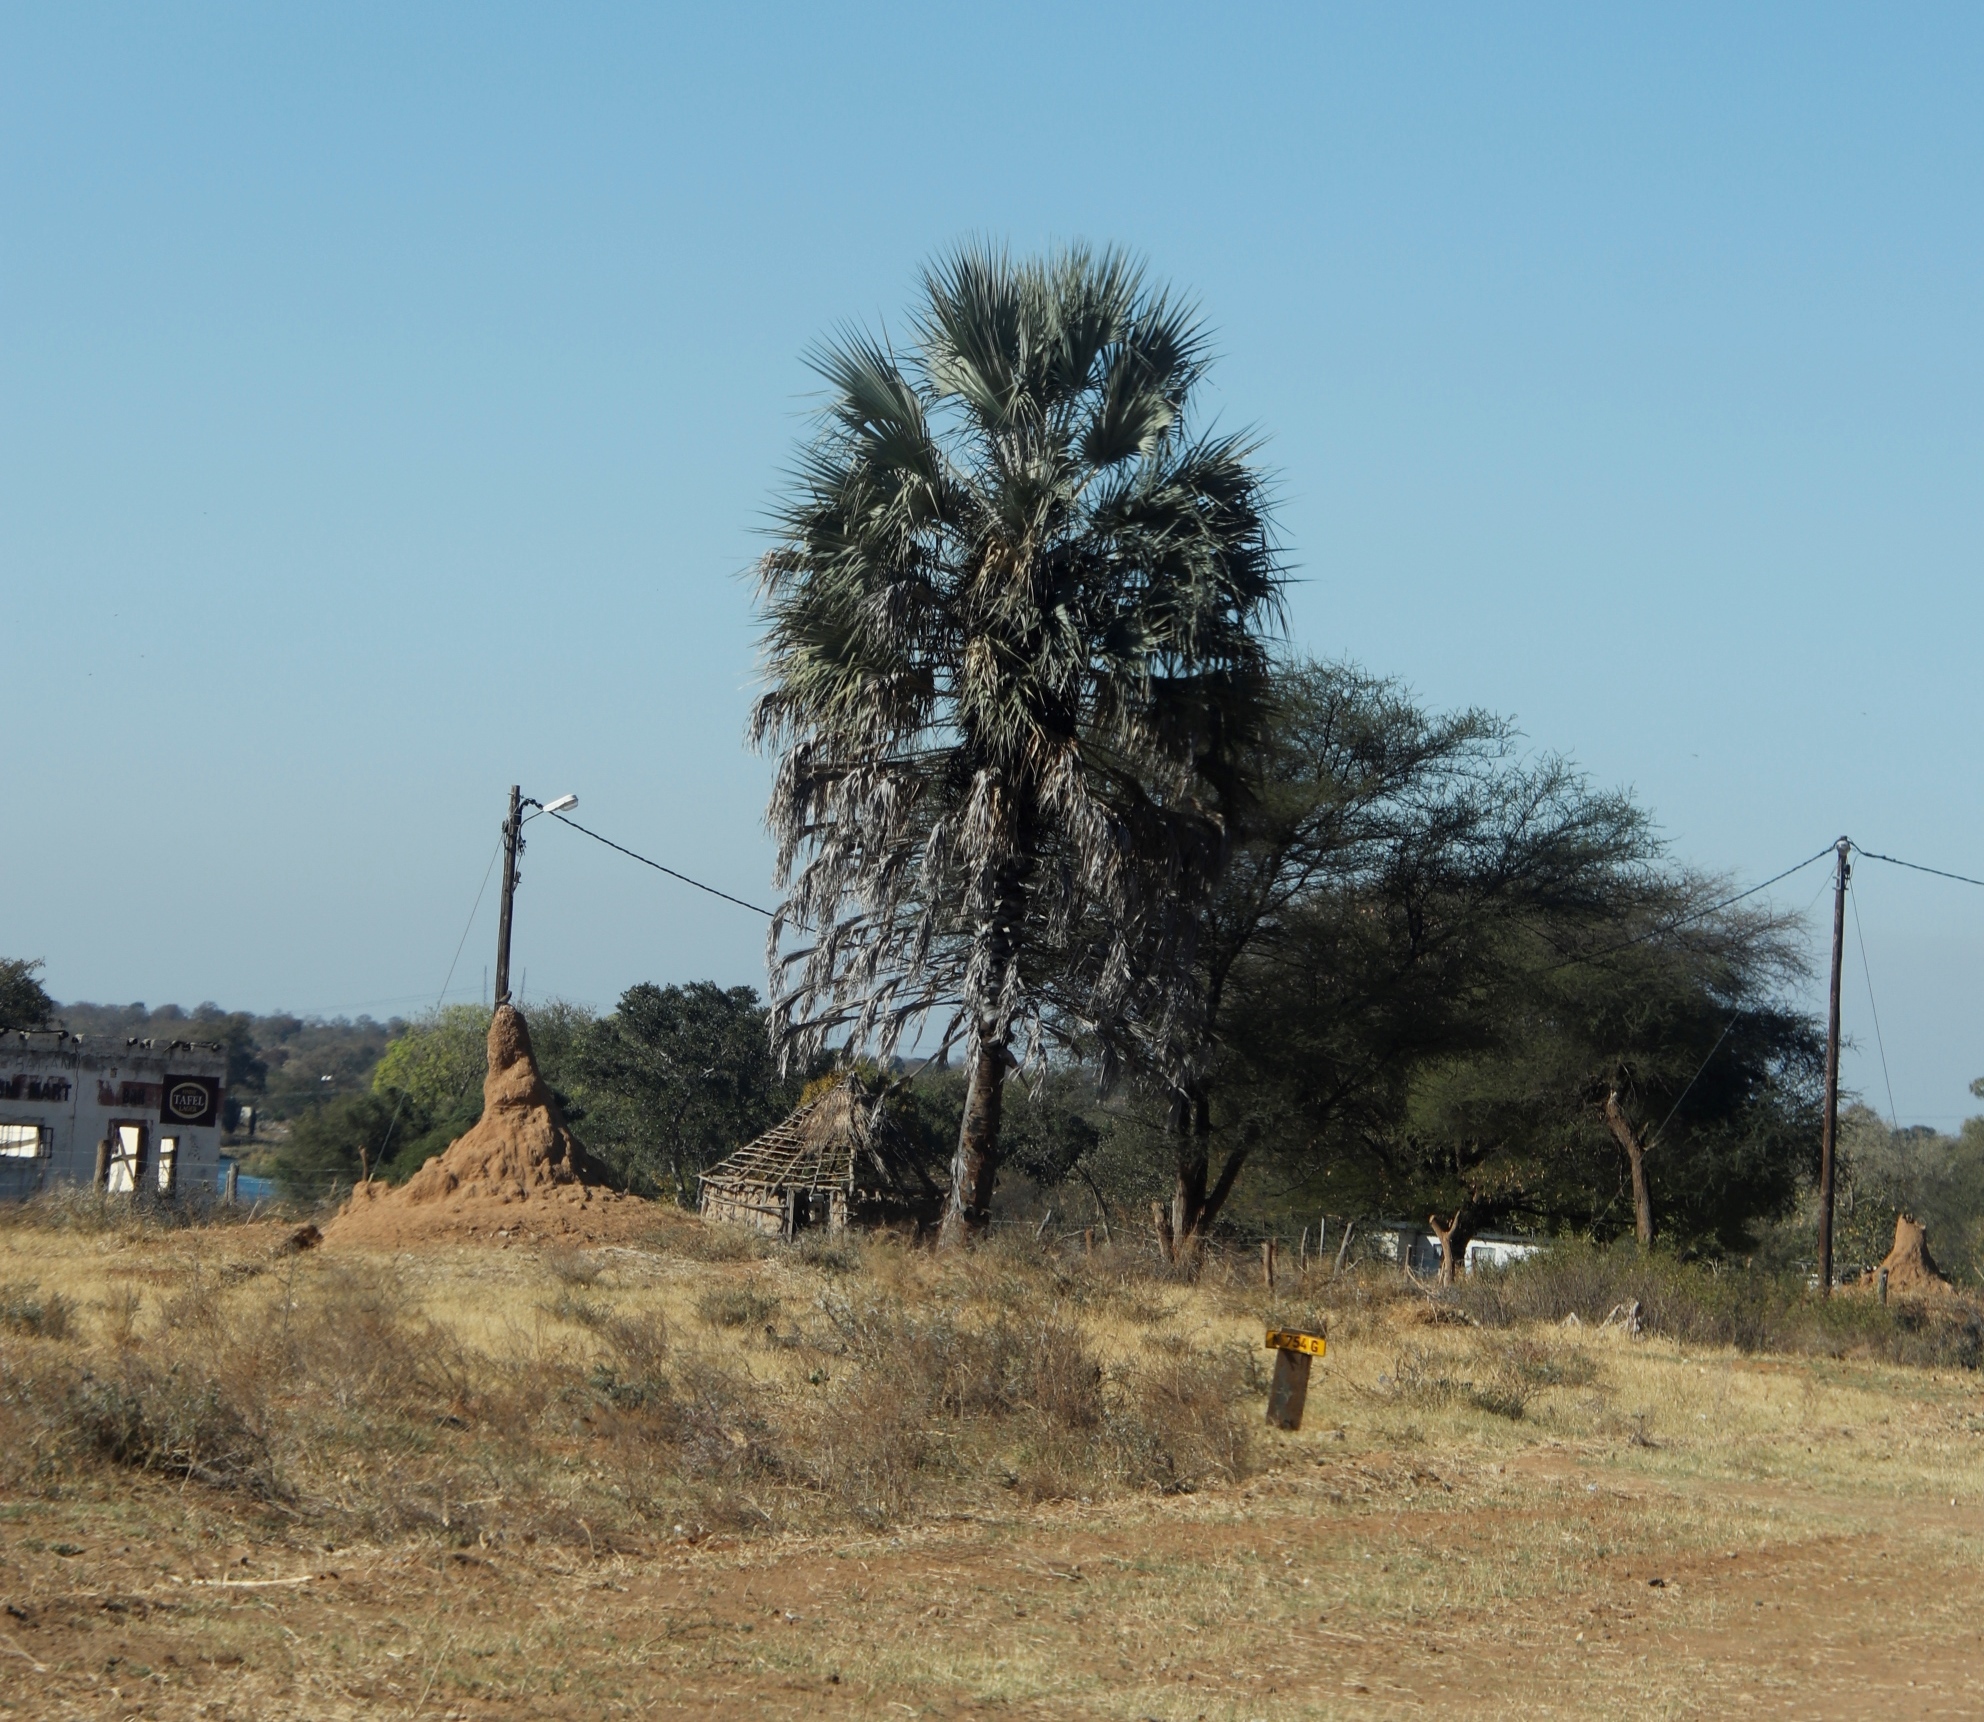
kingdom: Plantae
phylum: Tracheophyta
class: Liliopsida
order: Arecales
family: Arecaceae
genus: Hyphaene
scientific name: Hyphaene petersiana
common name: African ivory nut palm
